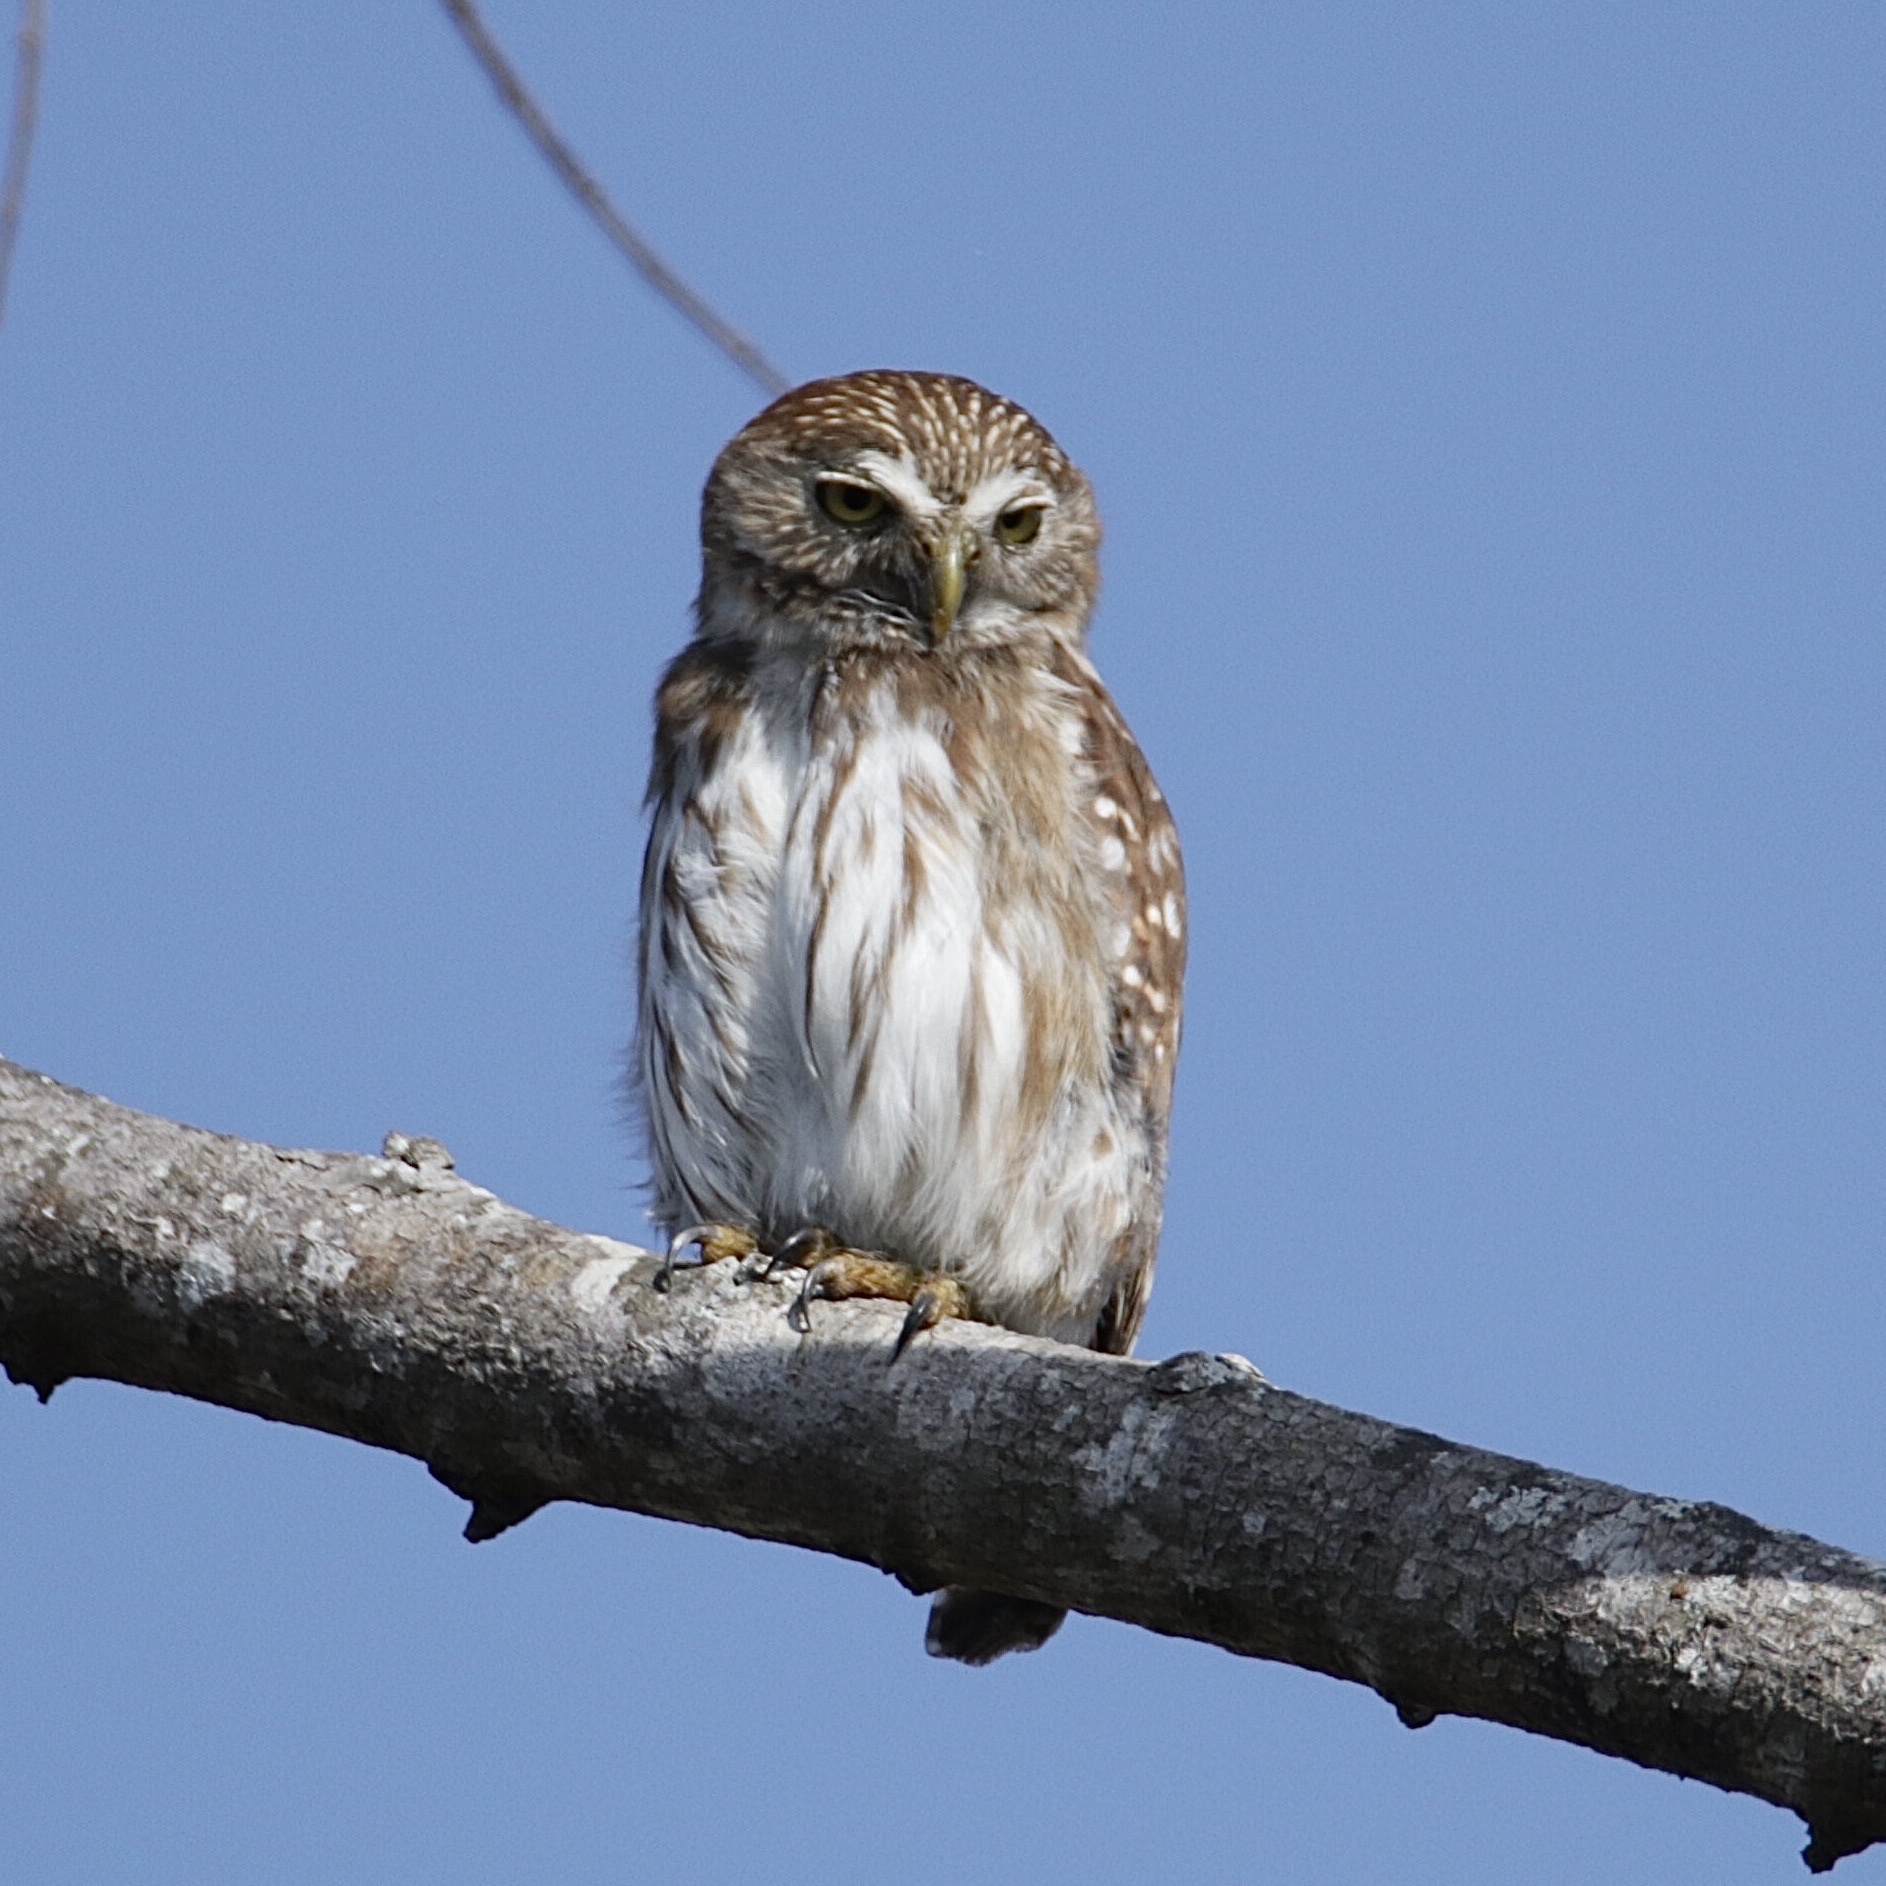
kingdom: Animalia
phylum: Chordata
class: Aves
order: Strigiformes
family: Strigidae
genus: Glaucidium
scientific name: Glaucidium brasilianum
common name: Ferruginous pygmy-owl
